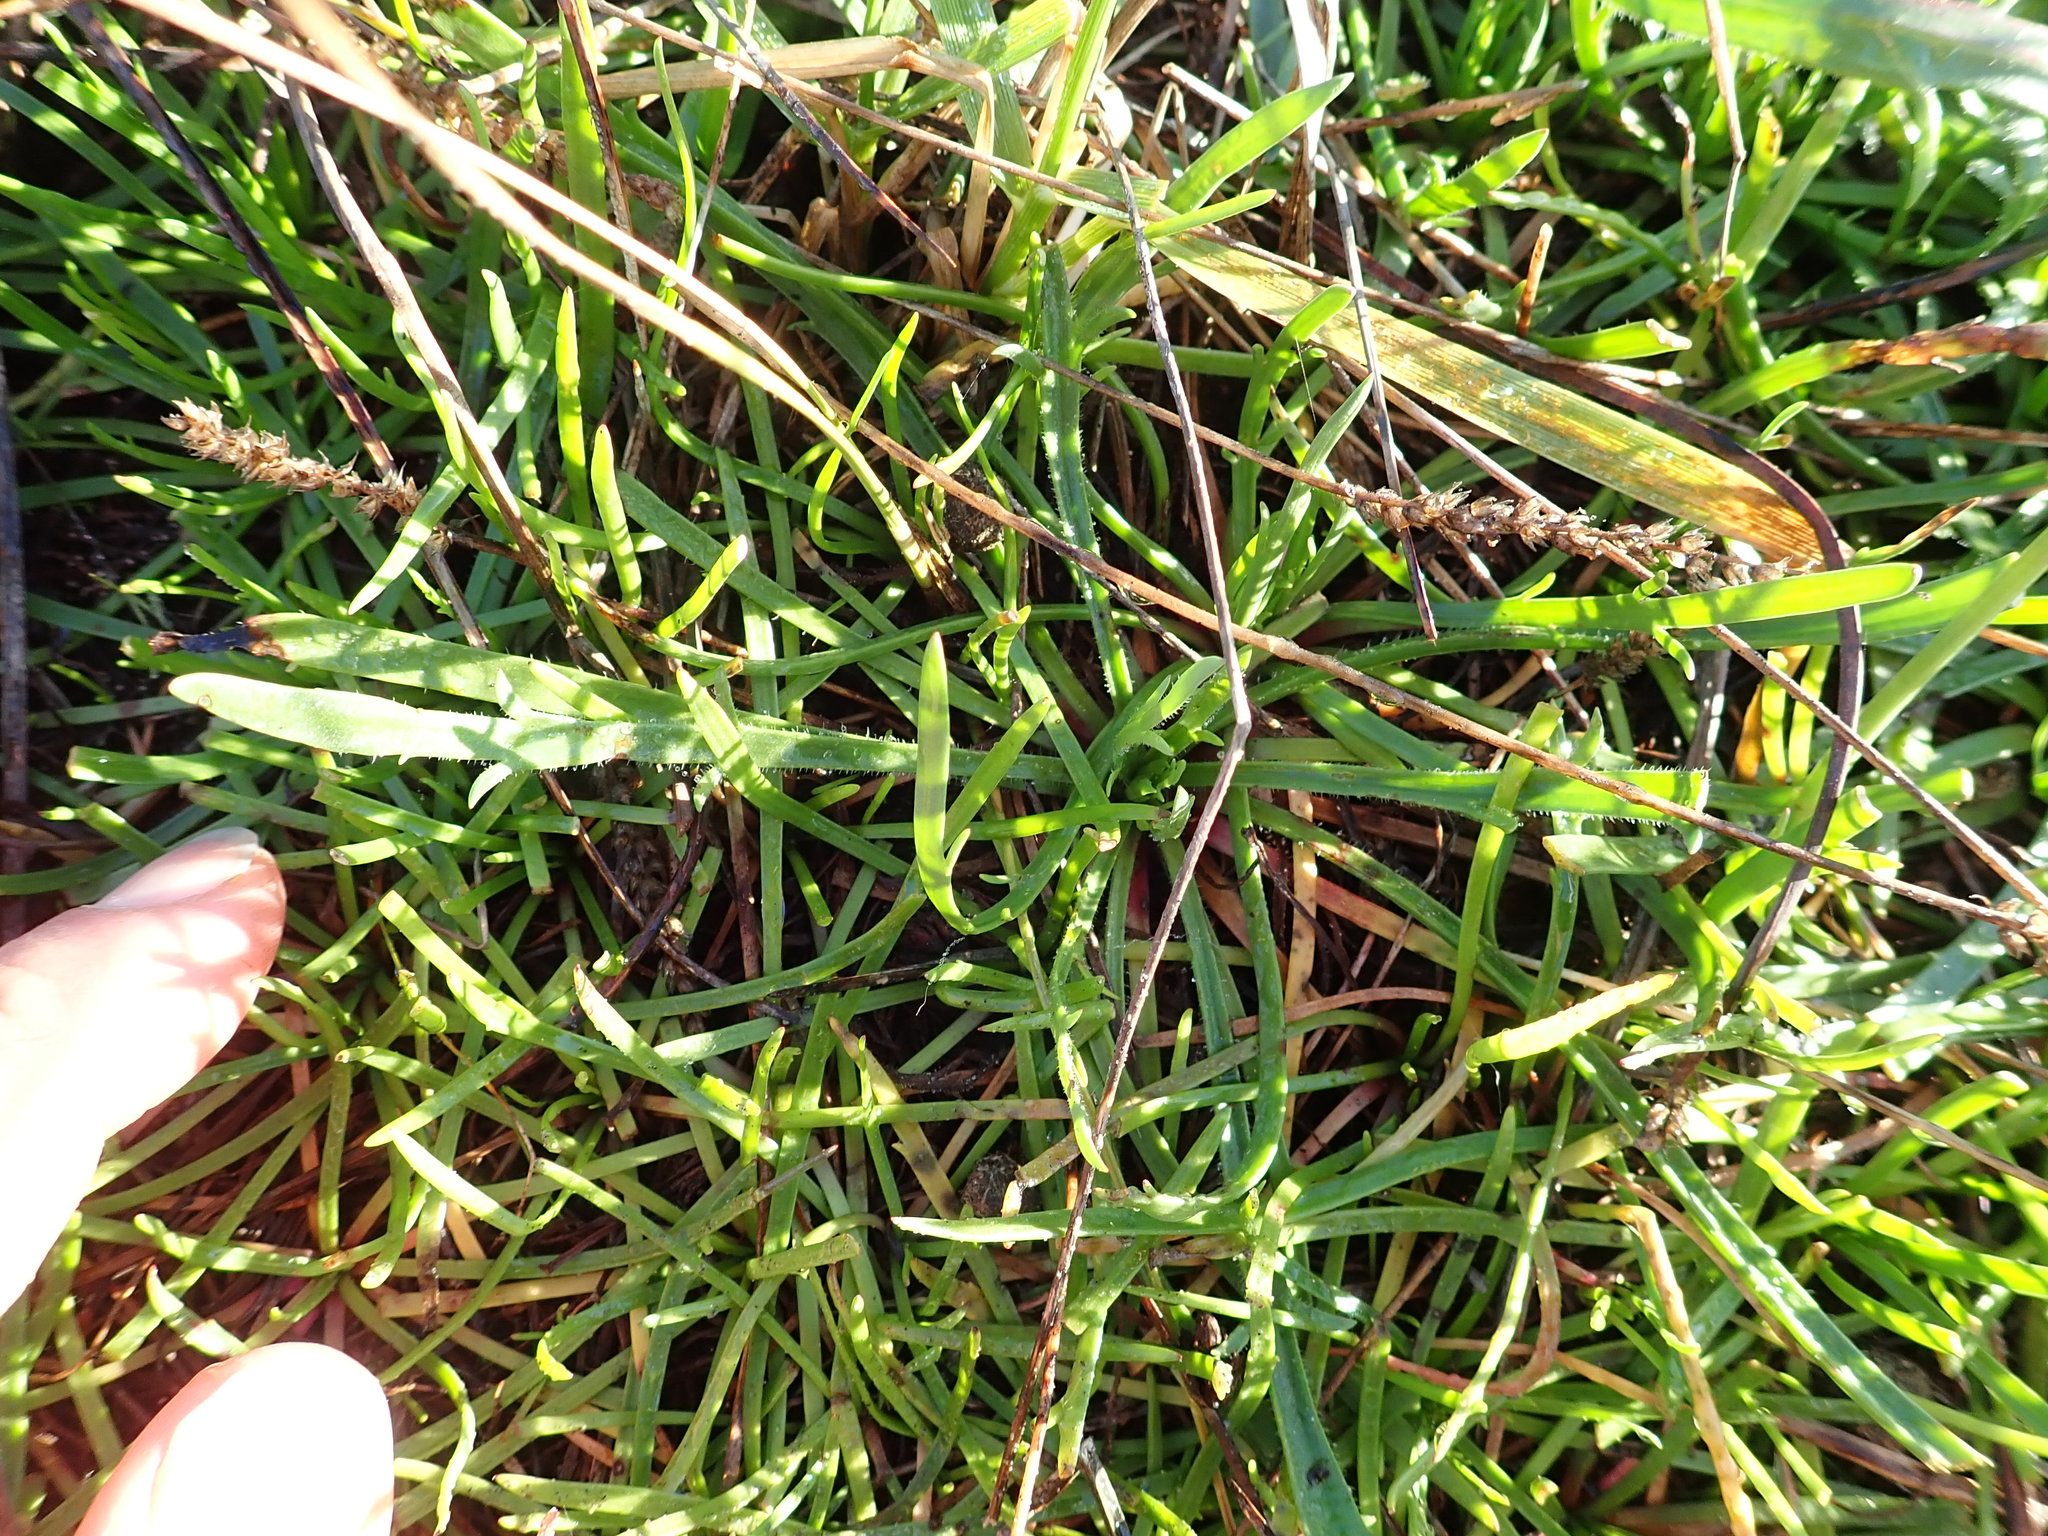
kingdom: Plantae
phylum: Tracheophyta
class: Magnoliopsida
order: Lamiales
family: Plantaginaceae
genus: Plantago
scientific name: Plantago coronopus
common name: Buck's-horn plantain
